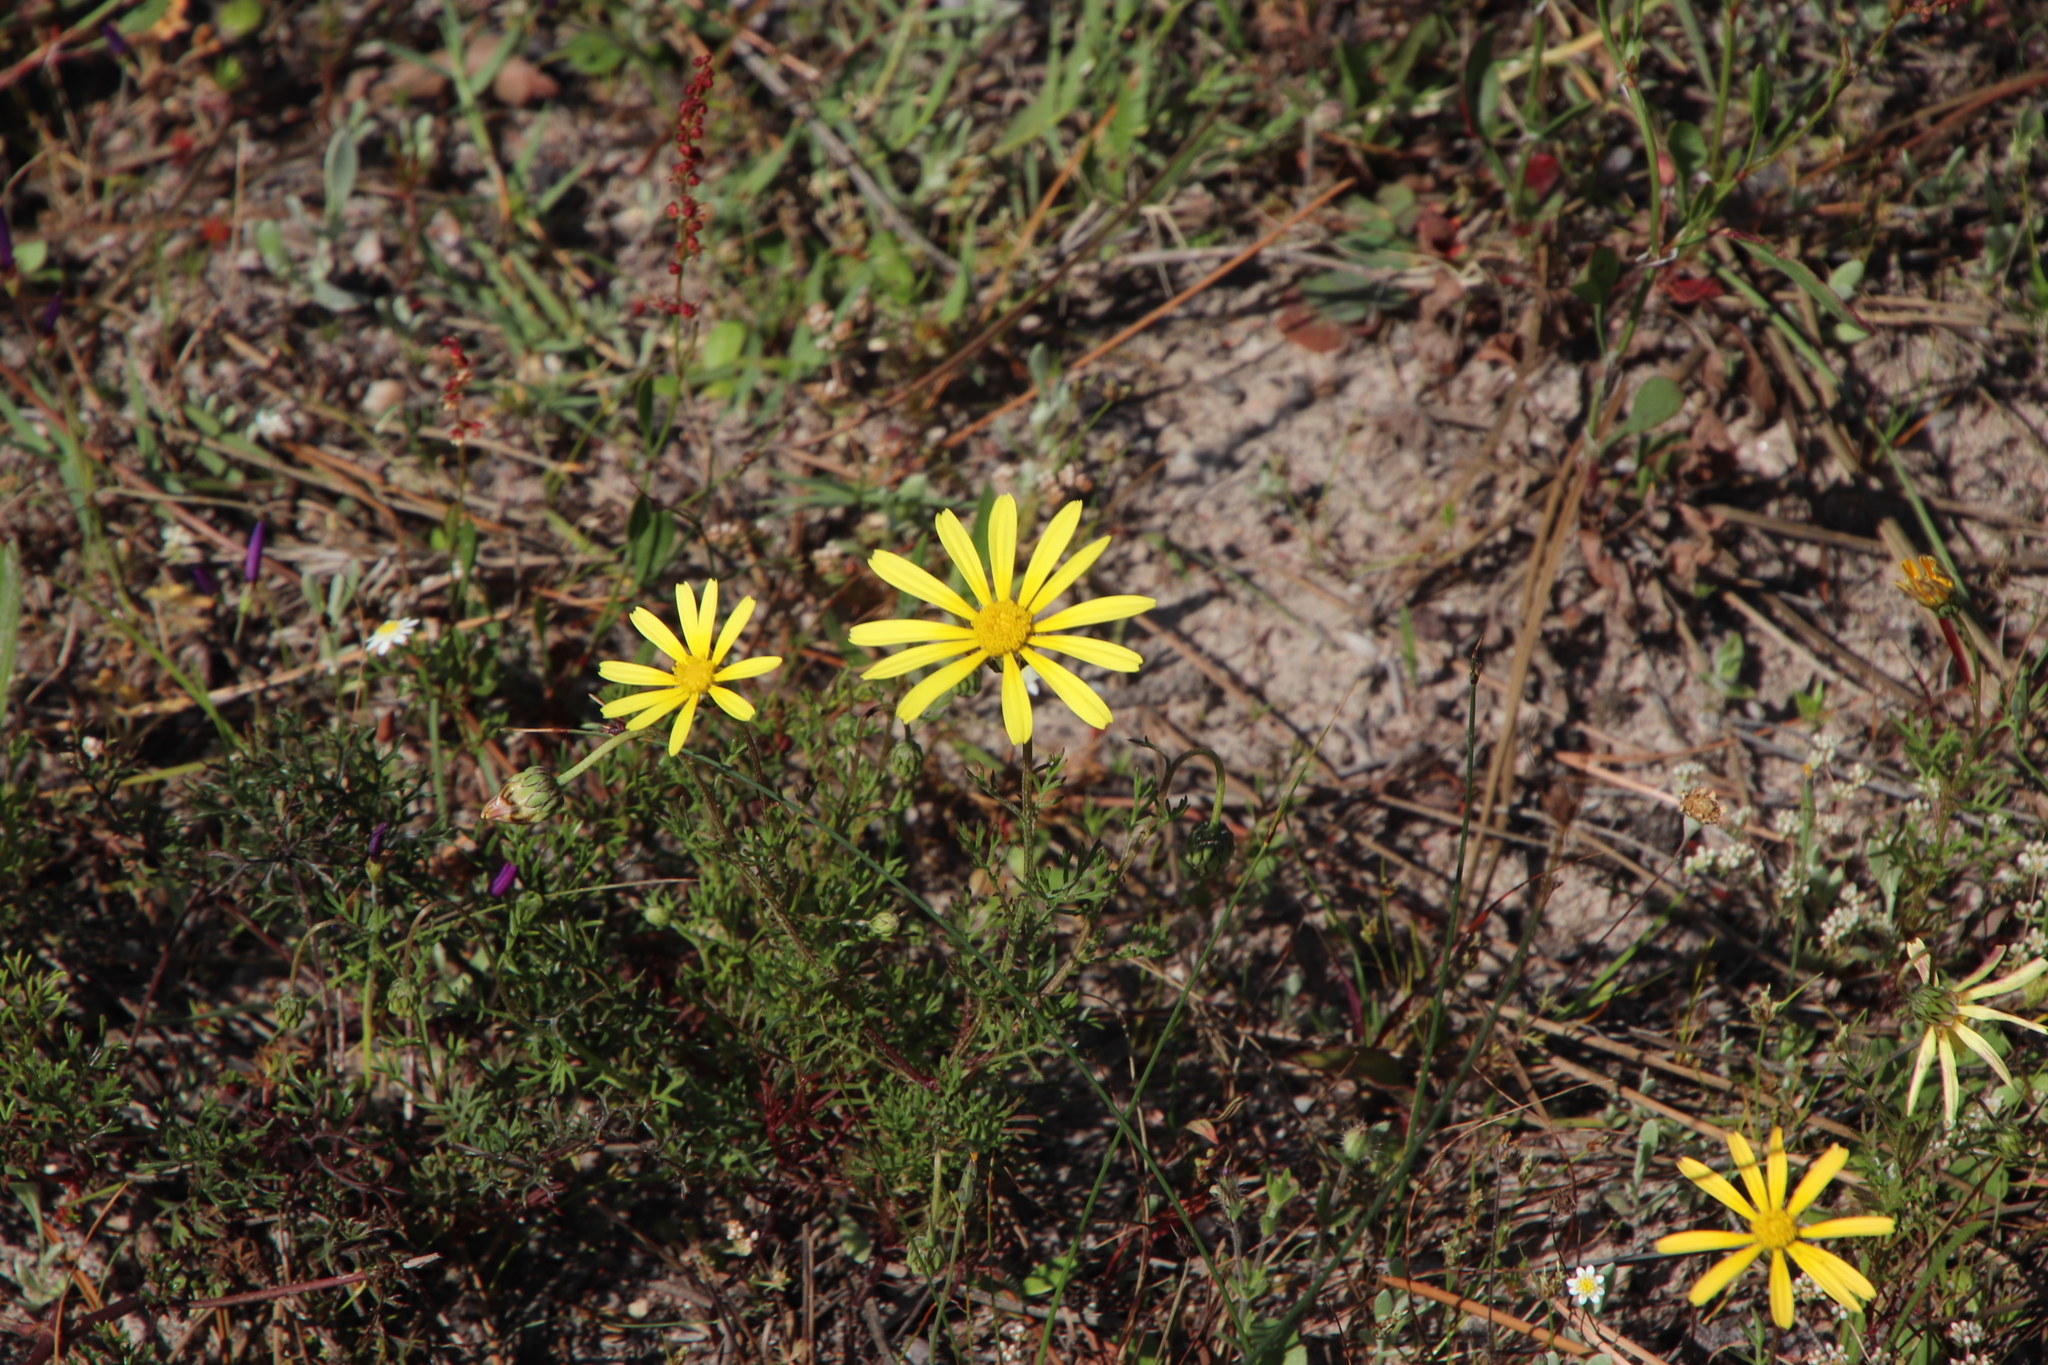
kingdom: Plantae
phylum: Tracheophyta
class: Magnoliopsida
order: Asterales
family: Asteraceae
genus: Ursinia
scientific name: Ursinia anthemoides
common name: Ursinia
